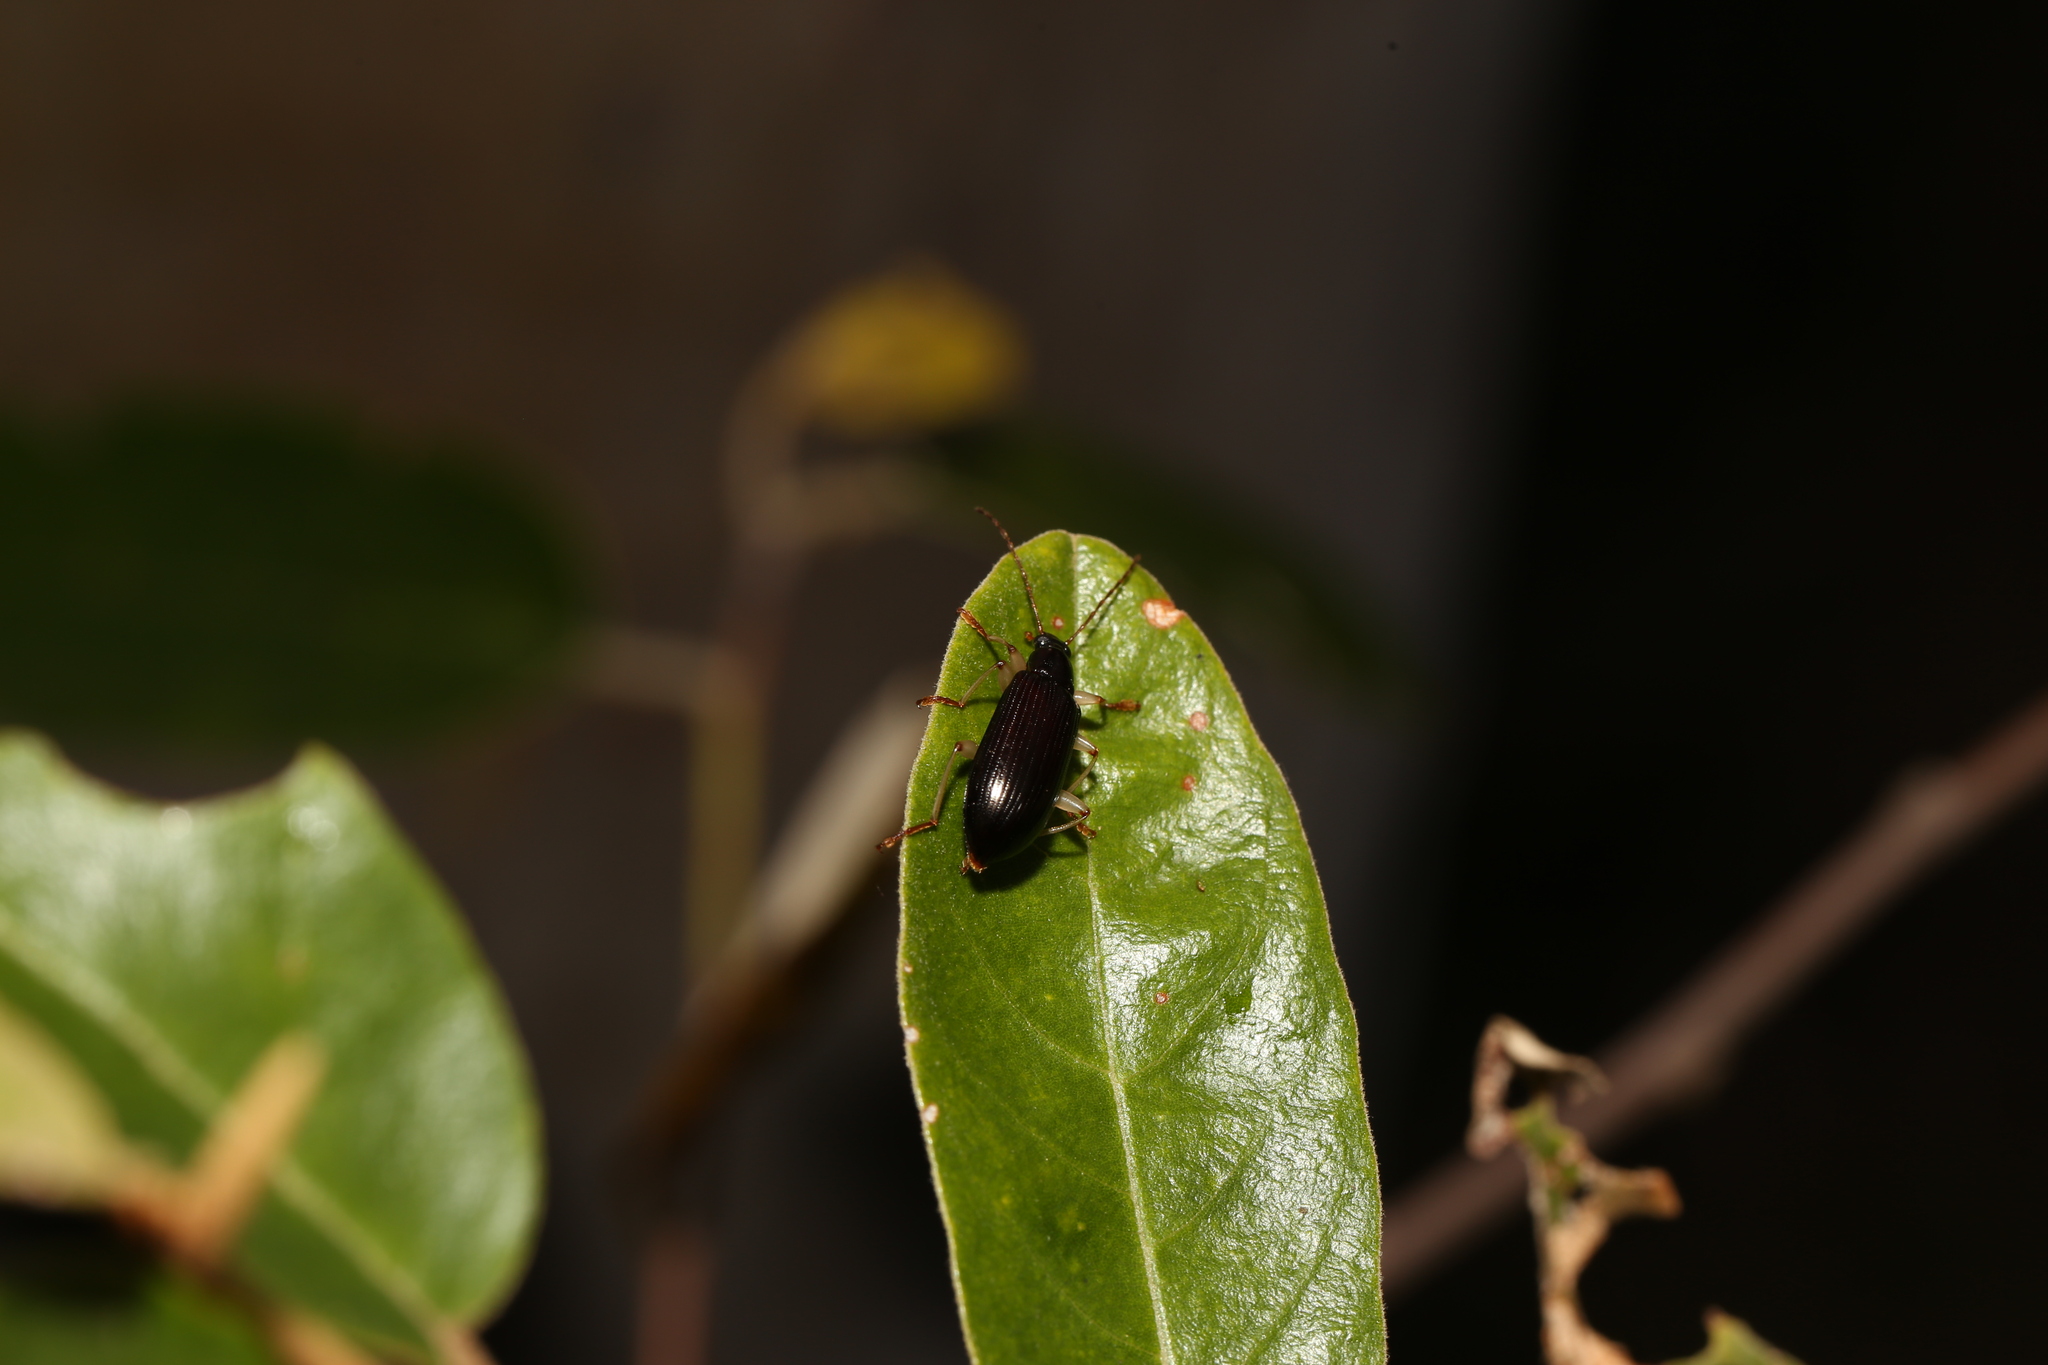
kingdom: Animalia
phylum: Arthropoda
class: Insecta
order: Coleoptera
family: Tenebrionidae
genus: Dimorphochilus
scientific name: Dimorphochilus
